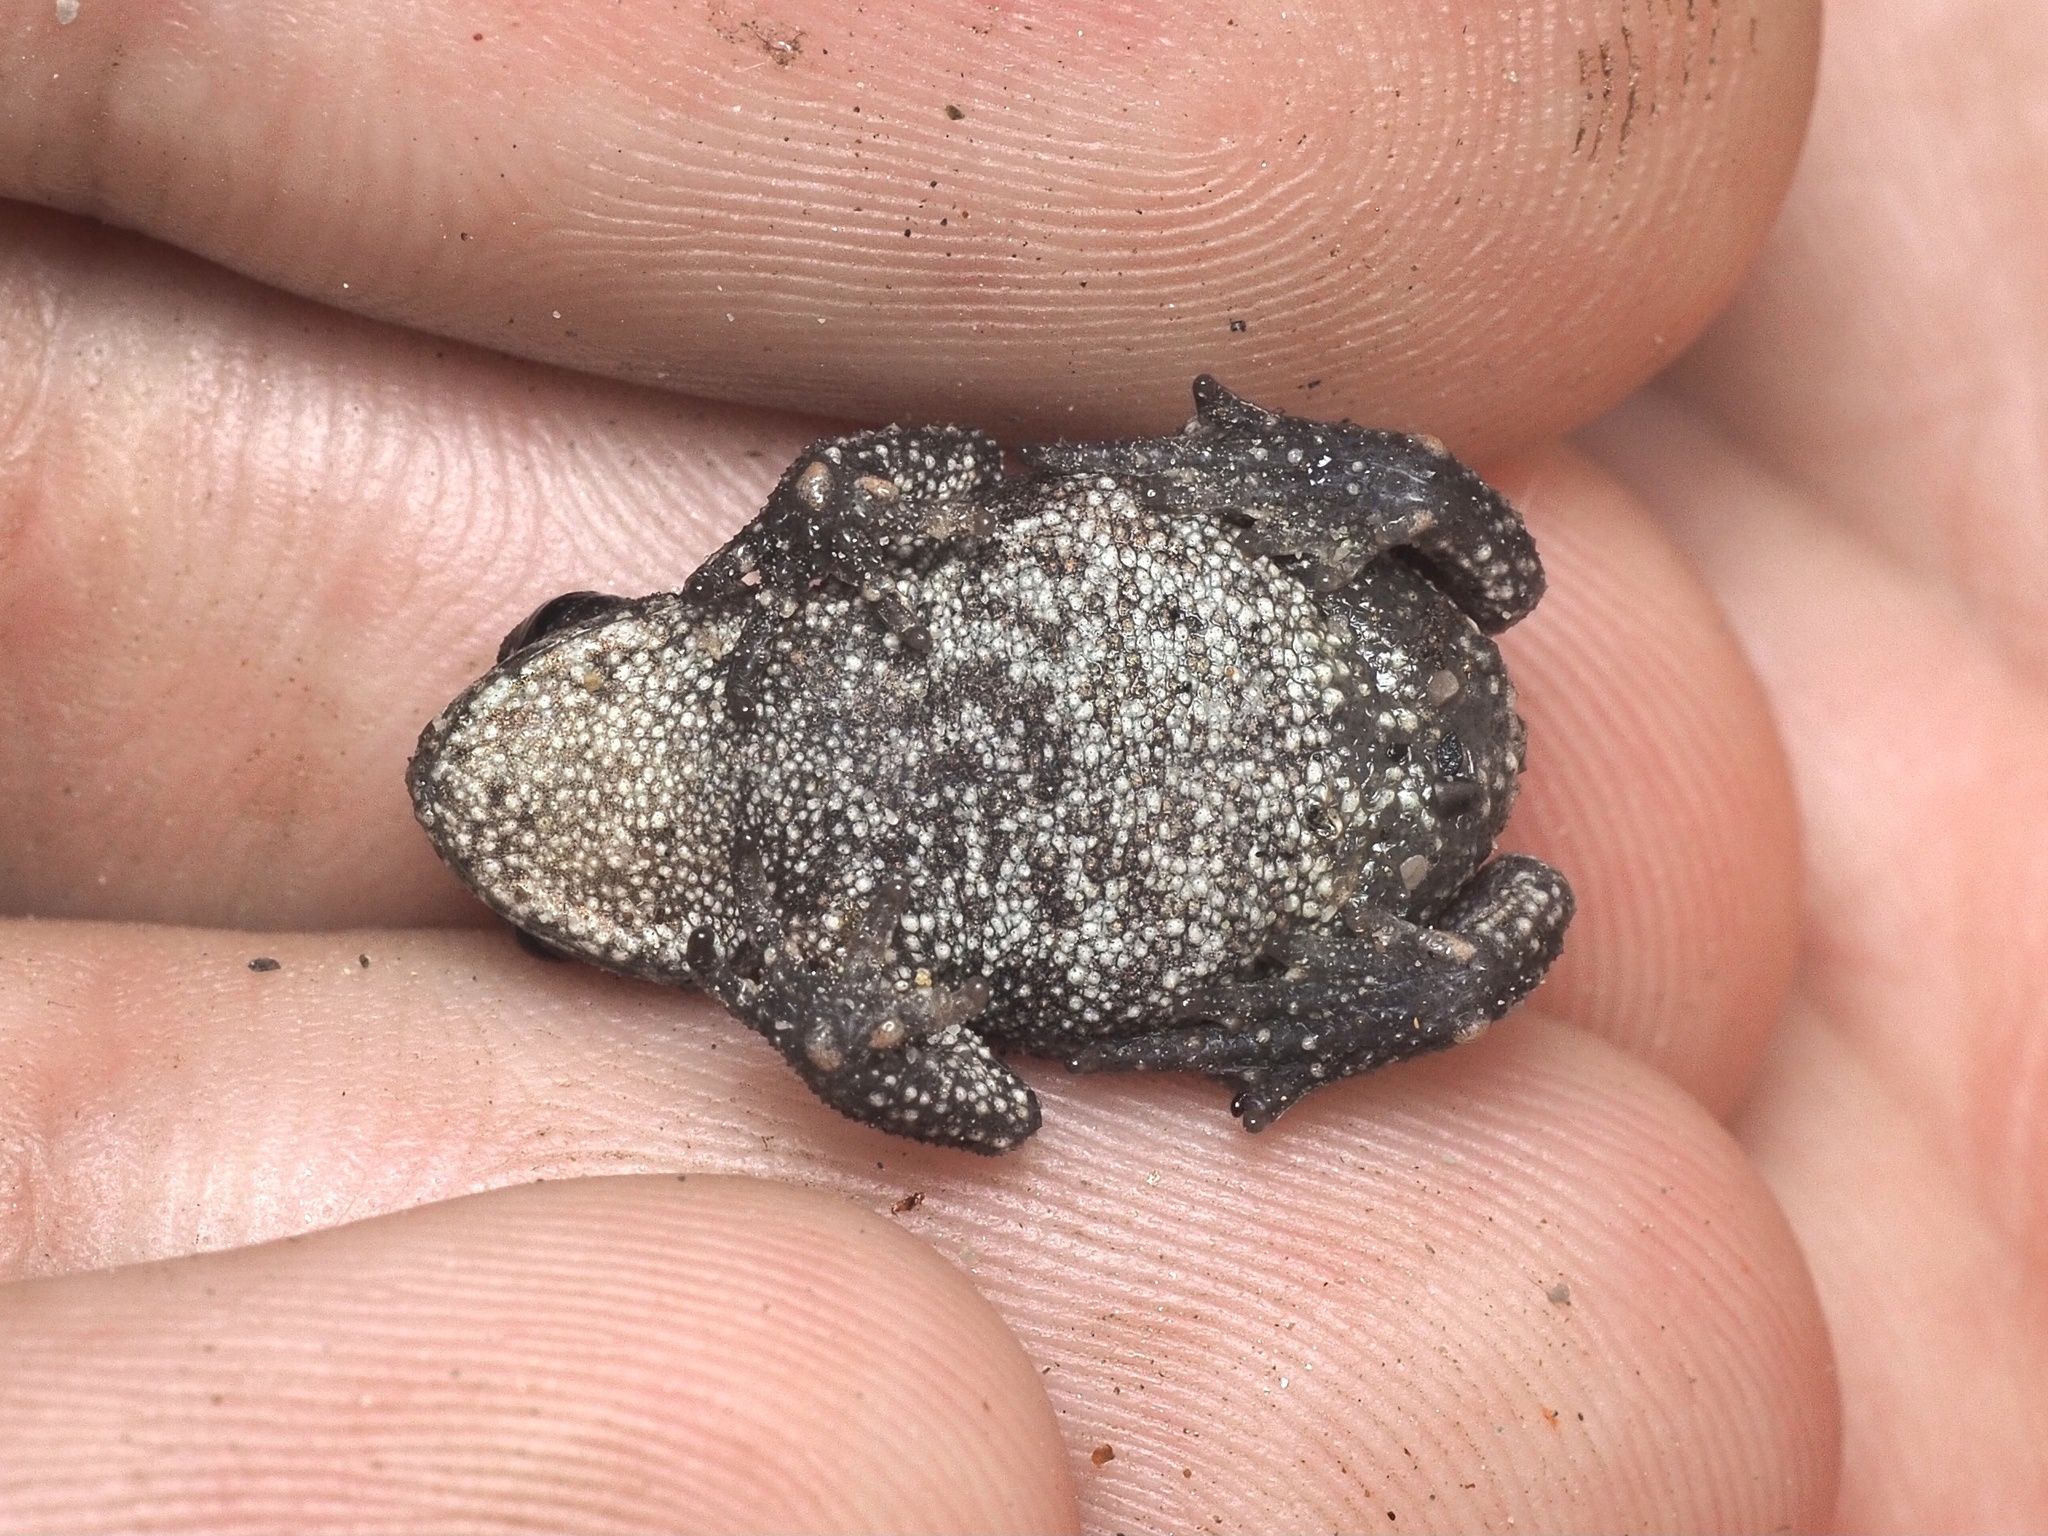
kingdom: Animalia
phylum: Chordata
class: Amphibia
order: Anura
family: Bufonidae
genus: Bufo
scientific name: Bufo bufo
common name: Common toad
